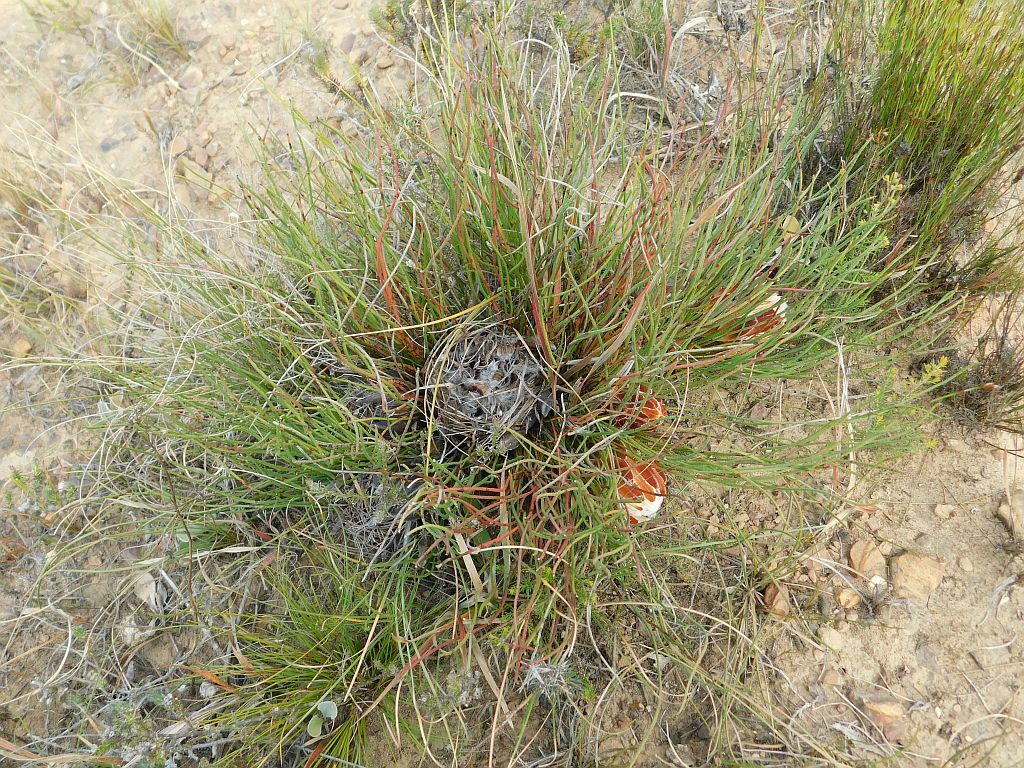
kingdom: Plantae
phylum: Tracheophyta
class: Magnoliopsida
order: Proteales
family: Proteaceae
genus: Protea
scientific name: Protea restionifolia
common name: Reed-leaf sugarbush
